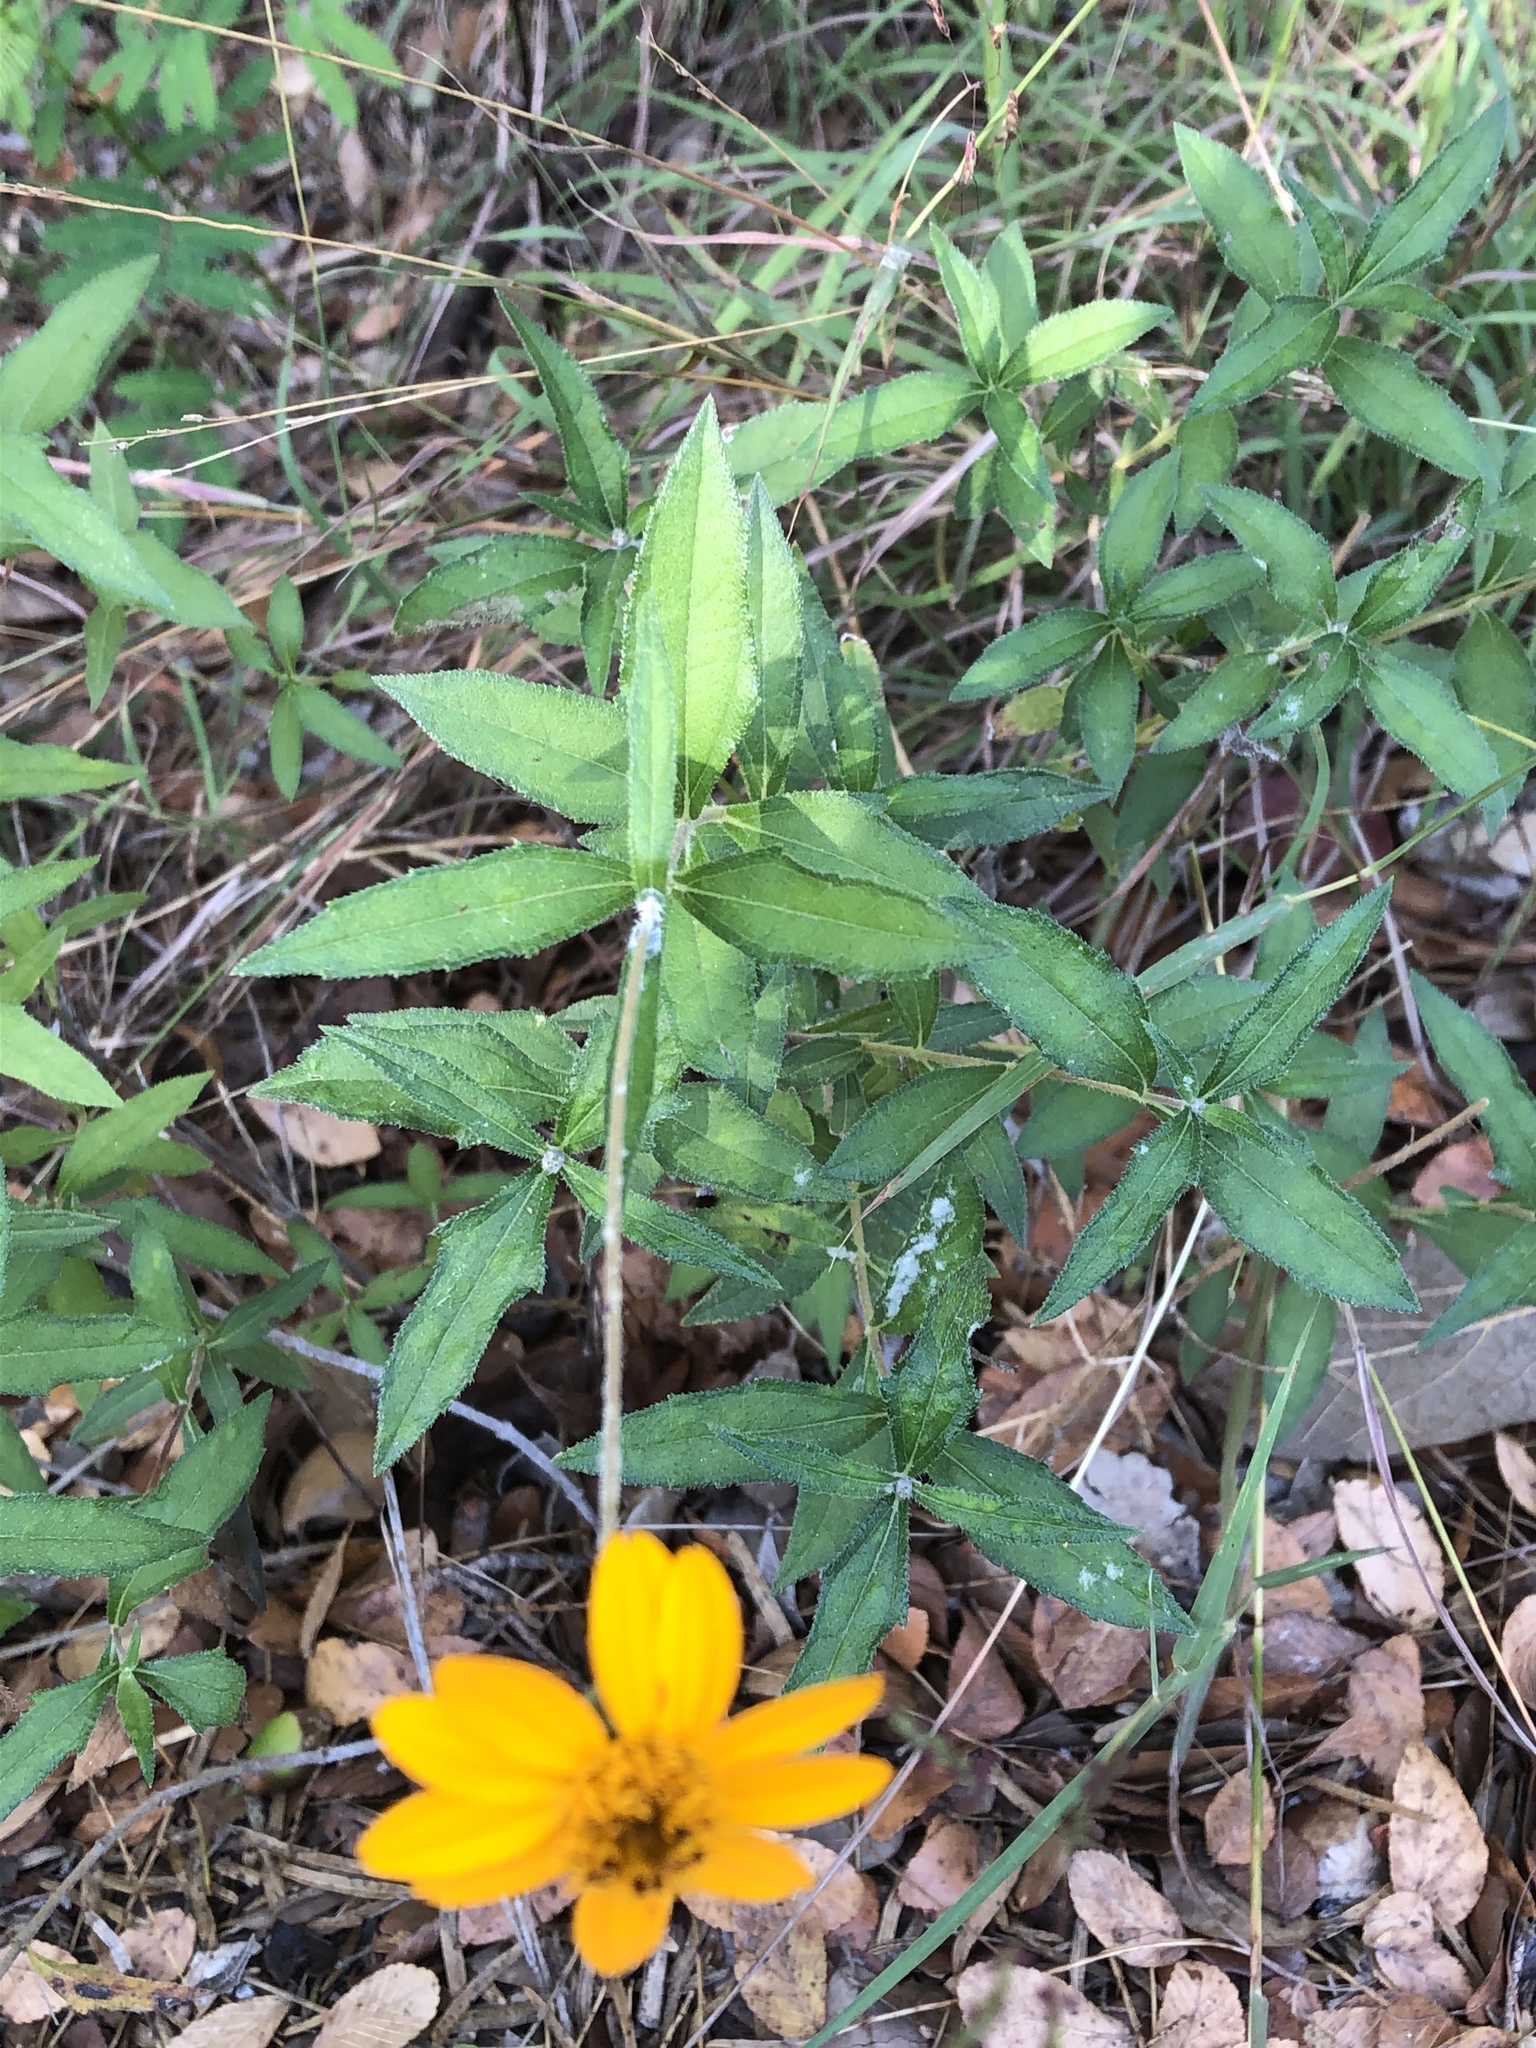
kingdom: Plantae
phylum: Tracheophyta
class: Magnoliopsida
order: Asterales
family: Asteraceae
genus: Wedelia
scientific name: Wedelia acapulcensis
